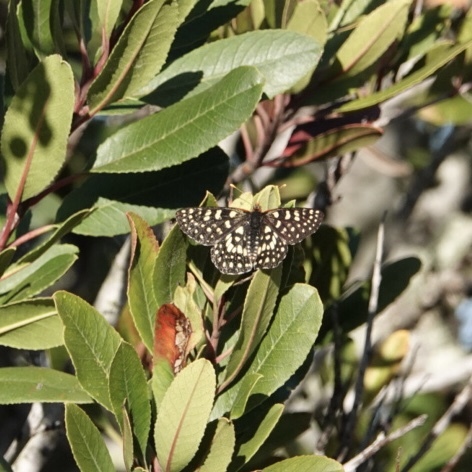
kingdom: Animalia
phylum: Arthropoda
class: Insecta
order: Lepidoptera
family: Nymphalidae
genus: Occidryas
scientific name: Occidryas chalcedona
